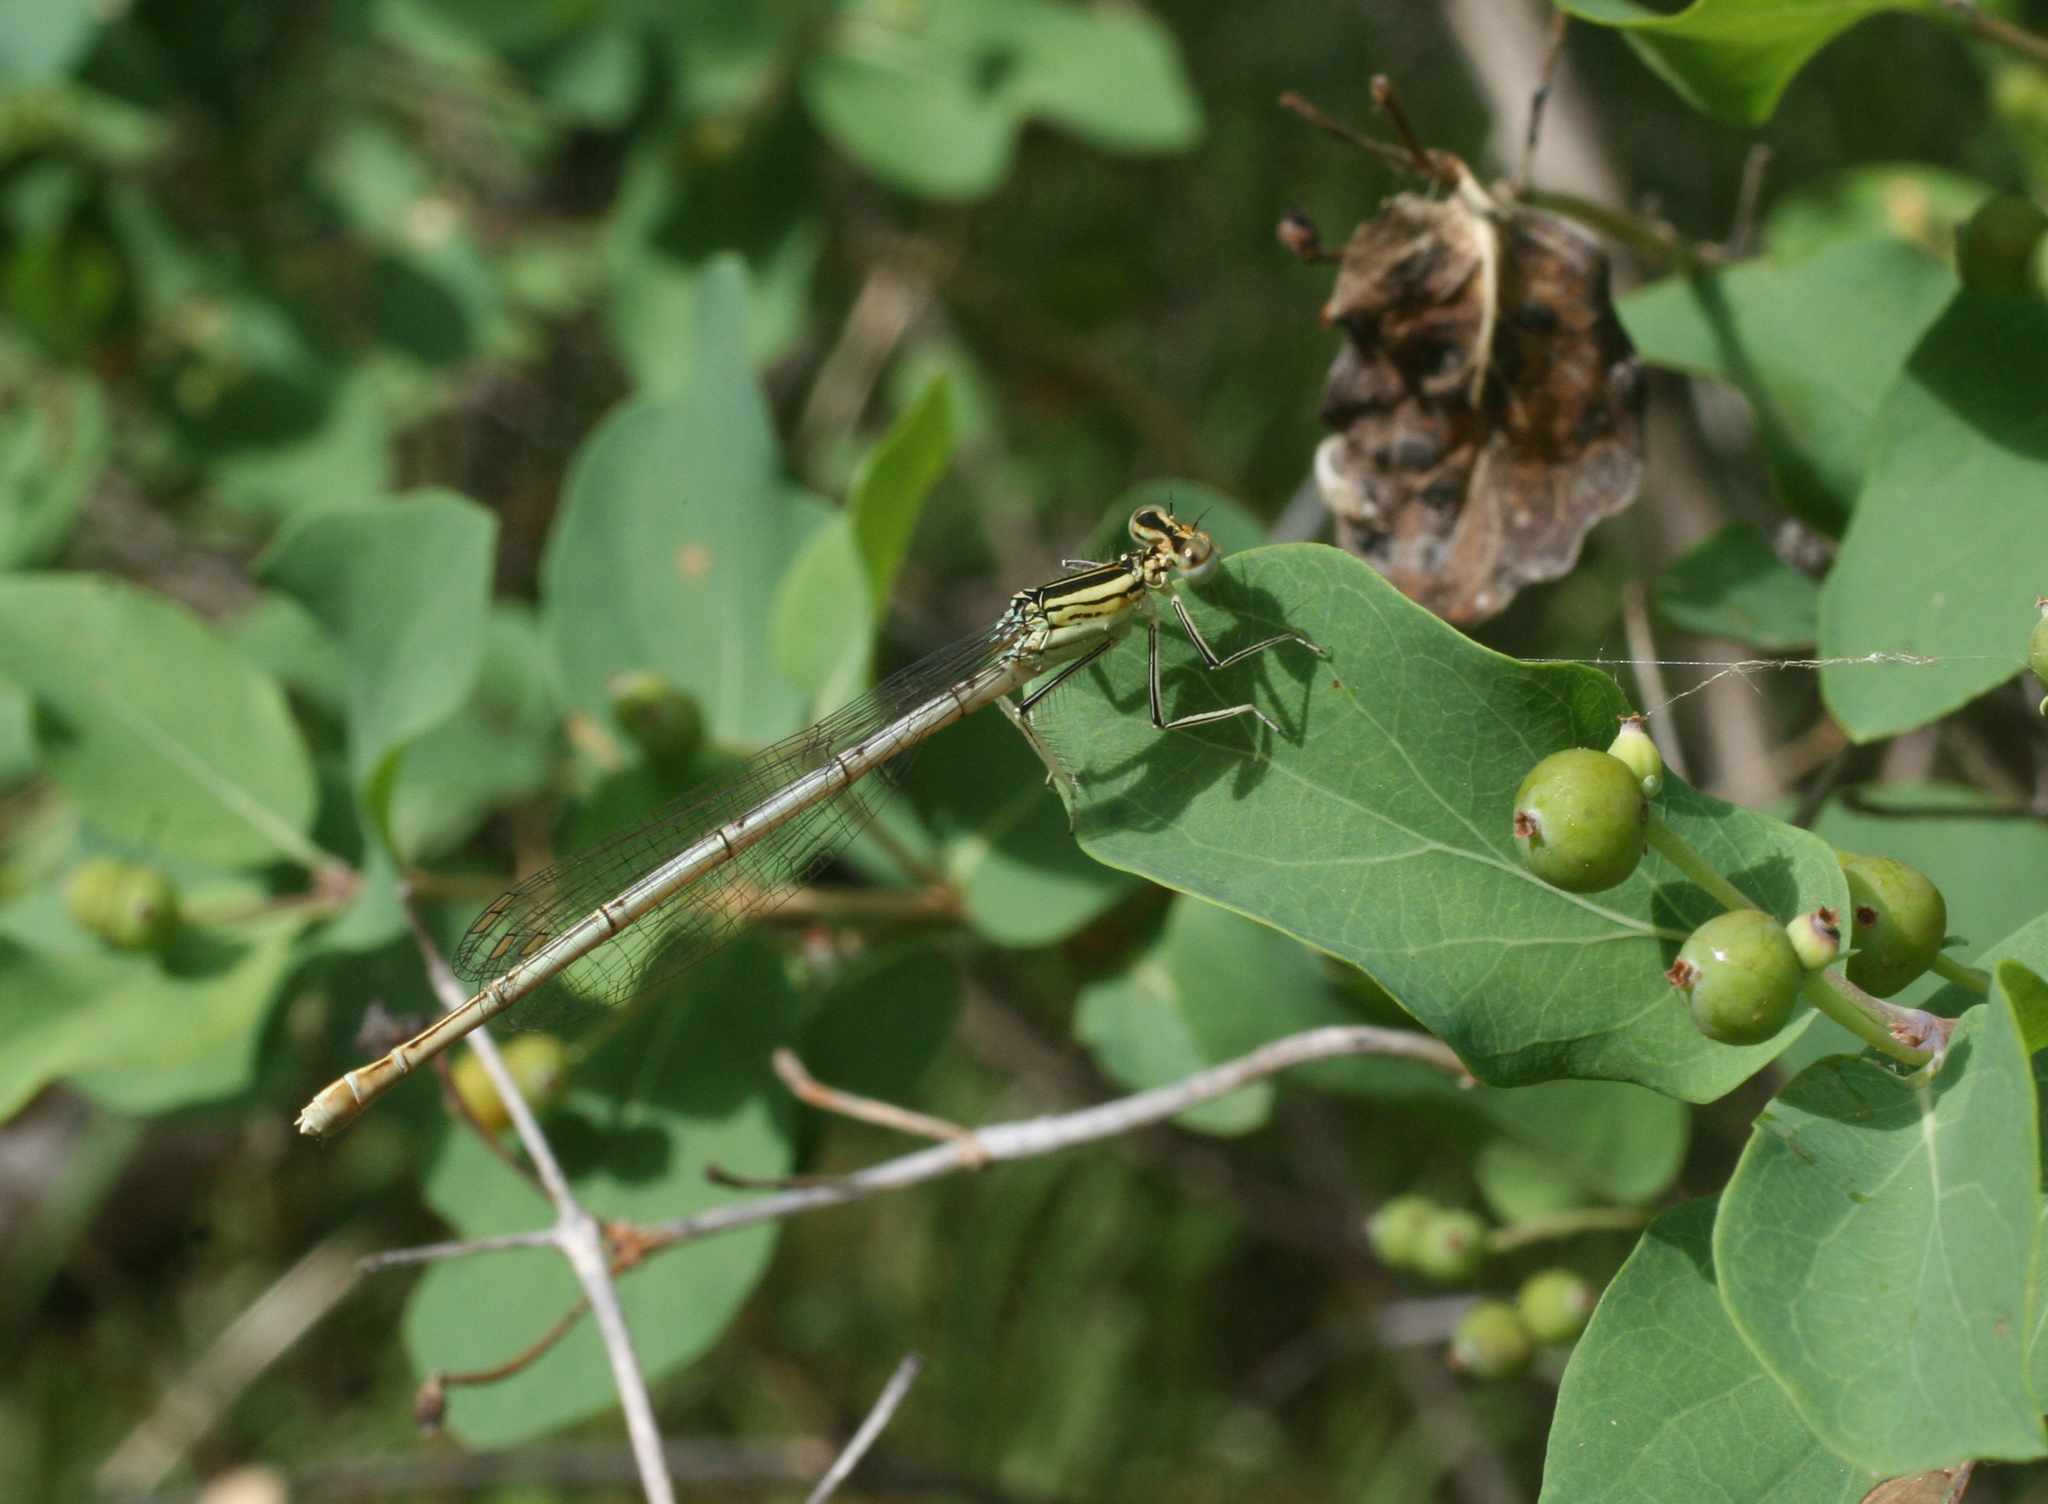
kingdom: Animalia
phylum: Arthropoda
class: Insecta
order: Odonata
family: Platycnemididae
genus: Platycnemis
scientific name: Platycnemis pennipes
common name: White-legged damselfly
